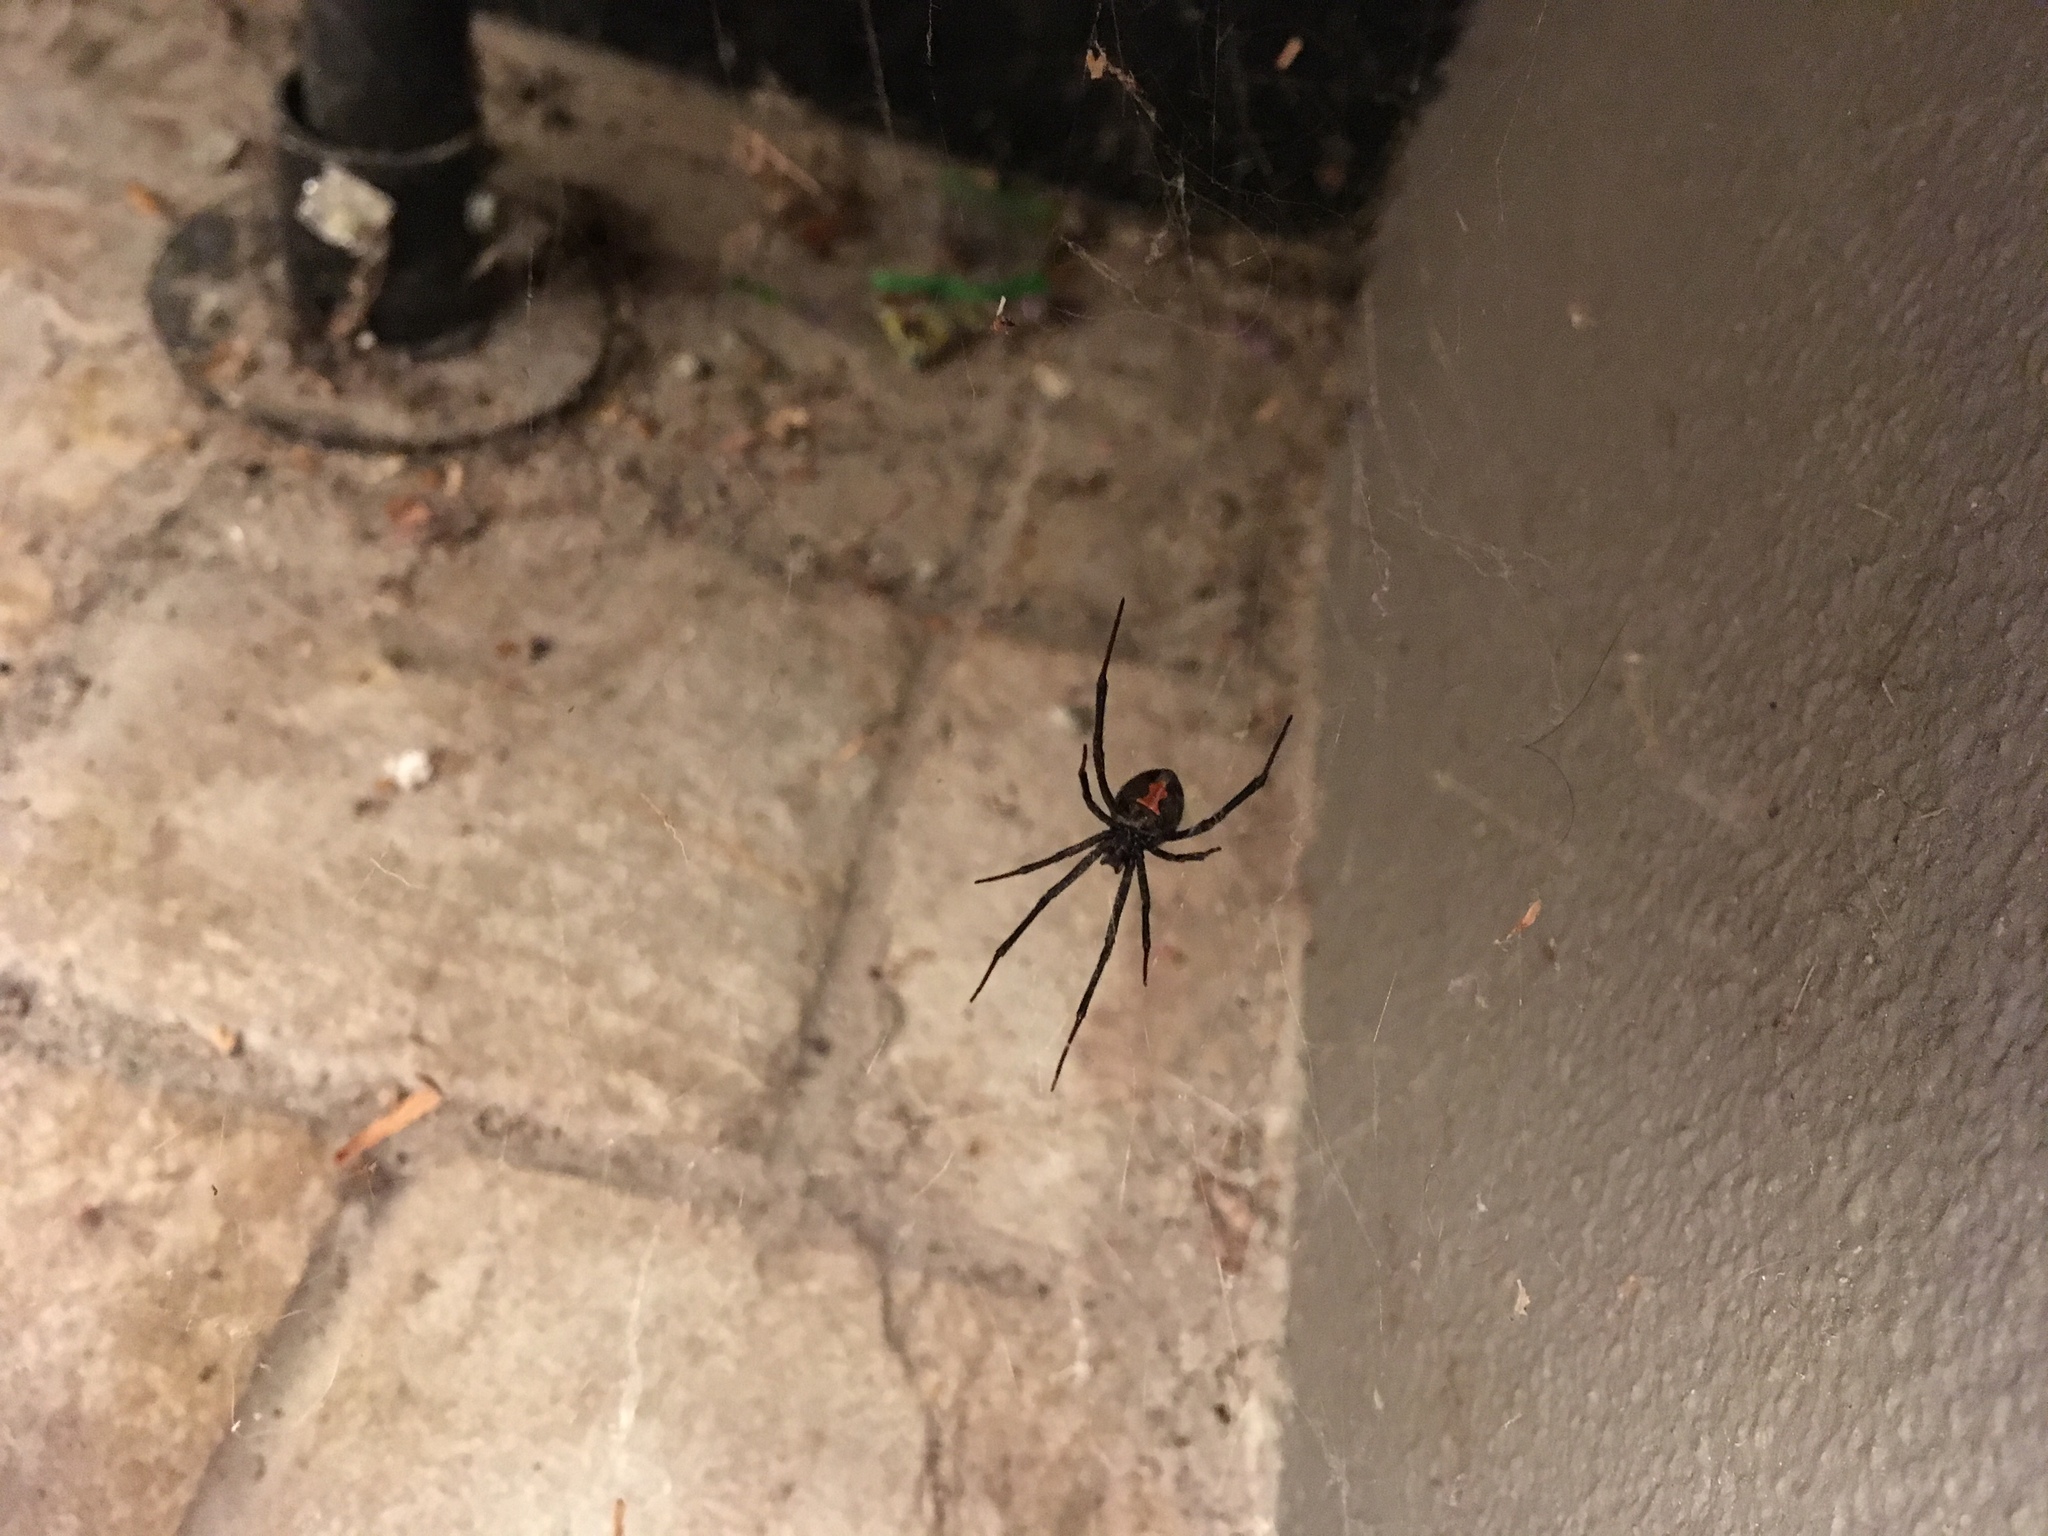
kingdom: Animalia
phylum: Arthropoda
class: Arachnida
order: Araneae
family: Theridiidae
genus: Latrodectus
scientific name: Latrodectus hasselti
